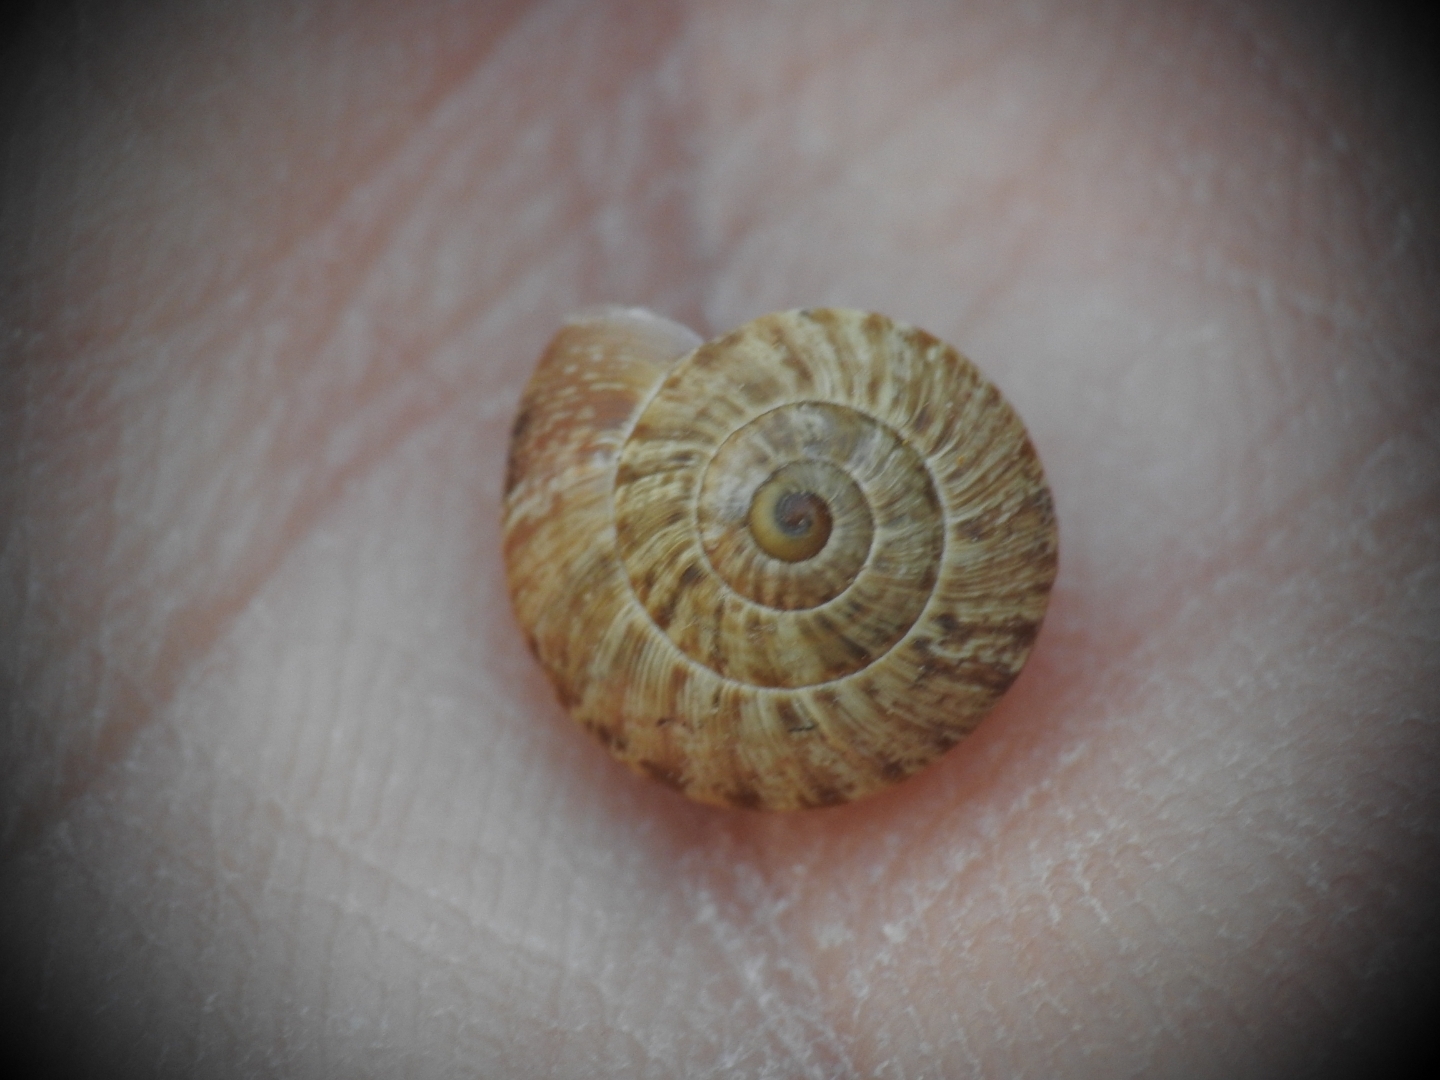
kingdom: Animalia
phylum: Mollusca
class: Gastropoda
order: Stylommatophora
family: Geomitridae
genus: Cernuella
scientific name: Cernuella virgata
